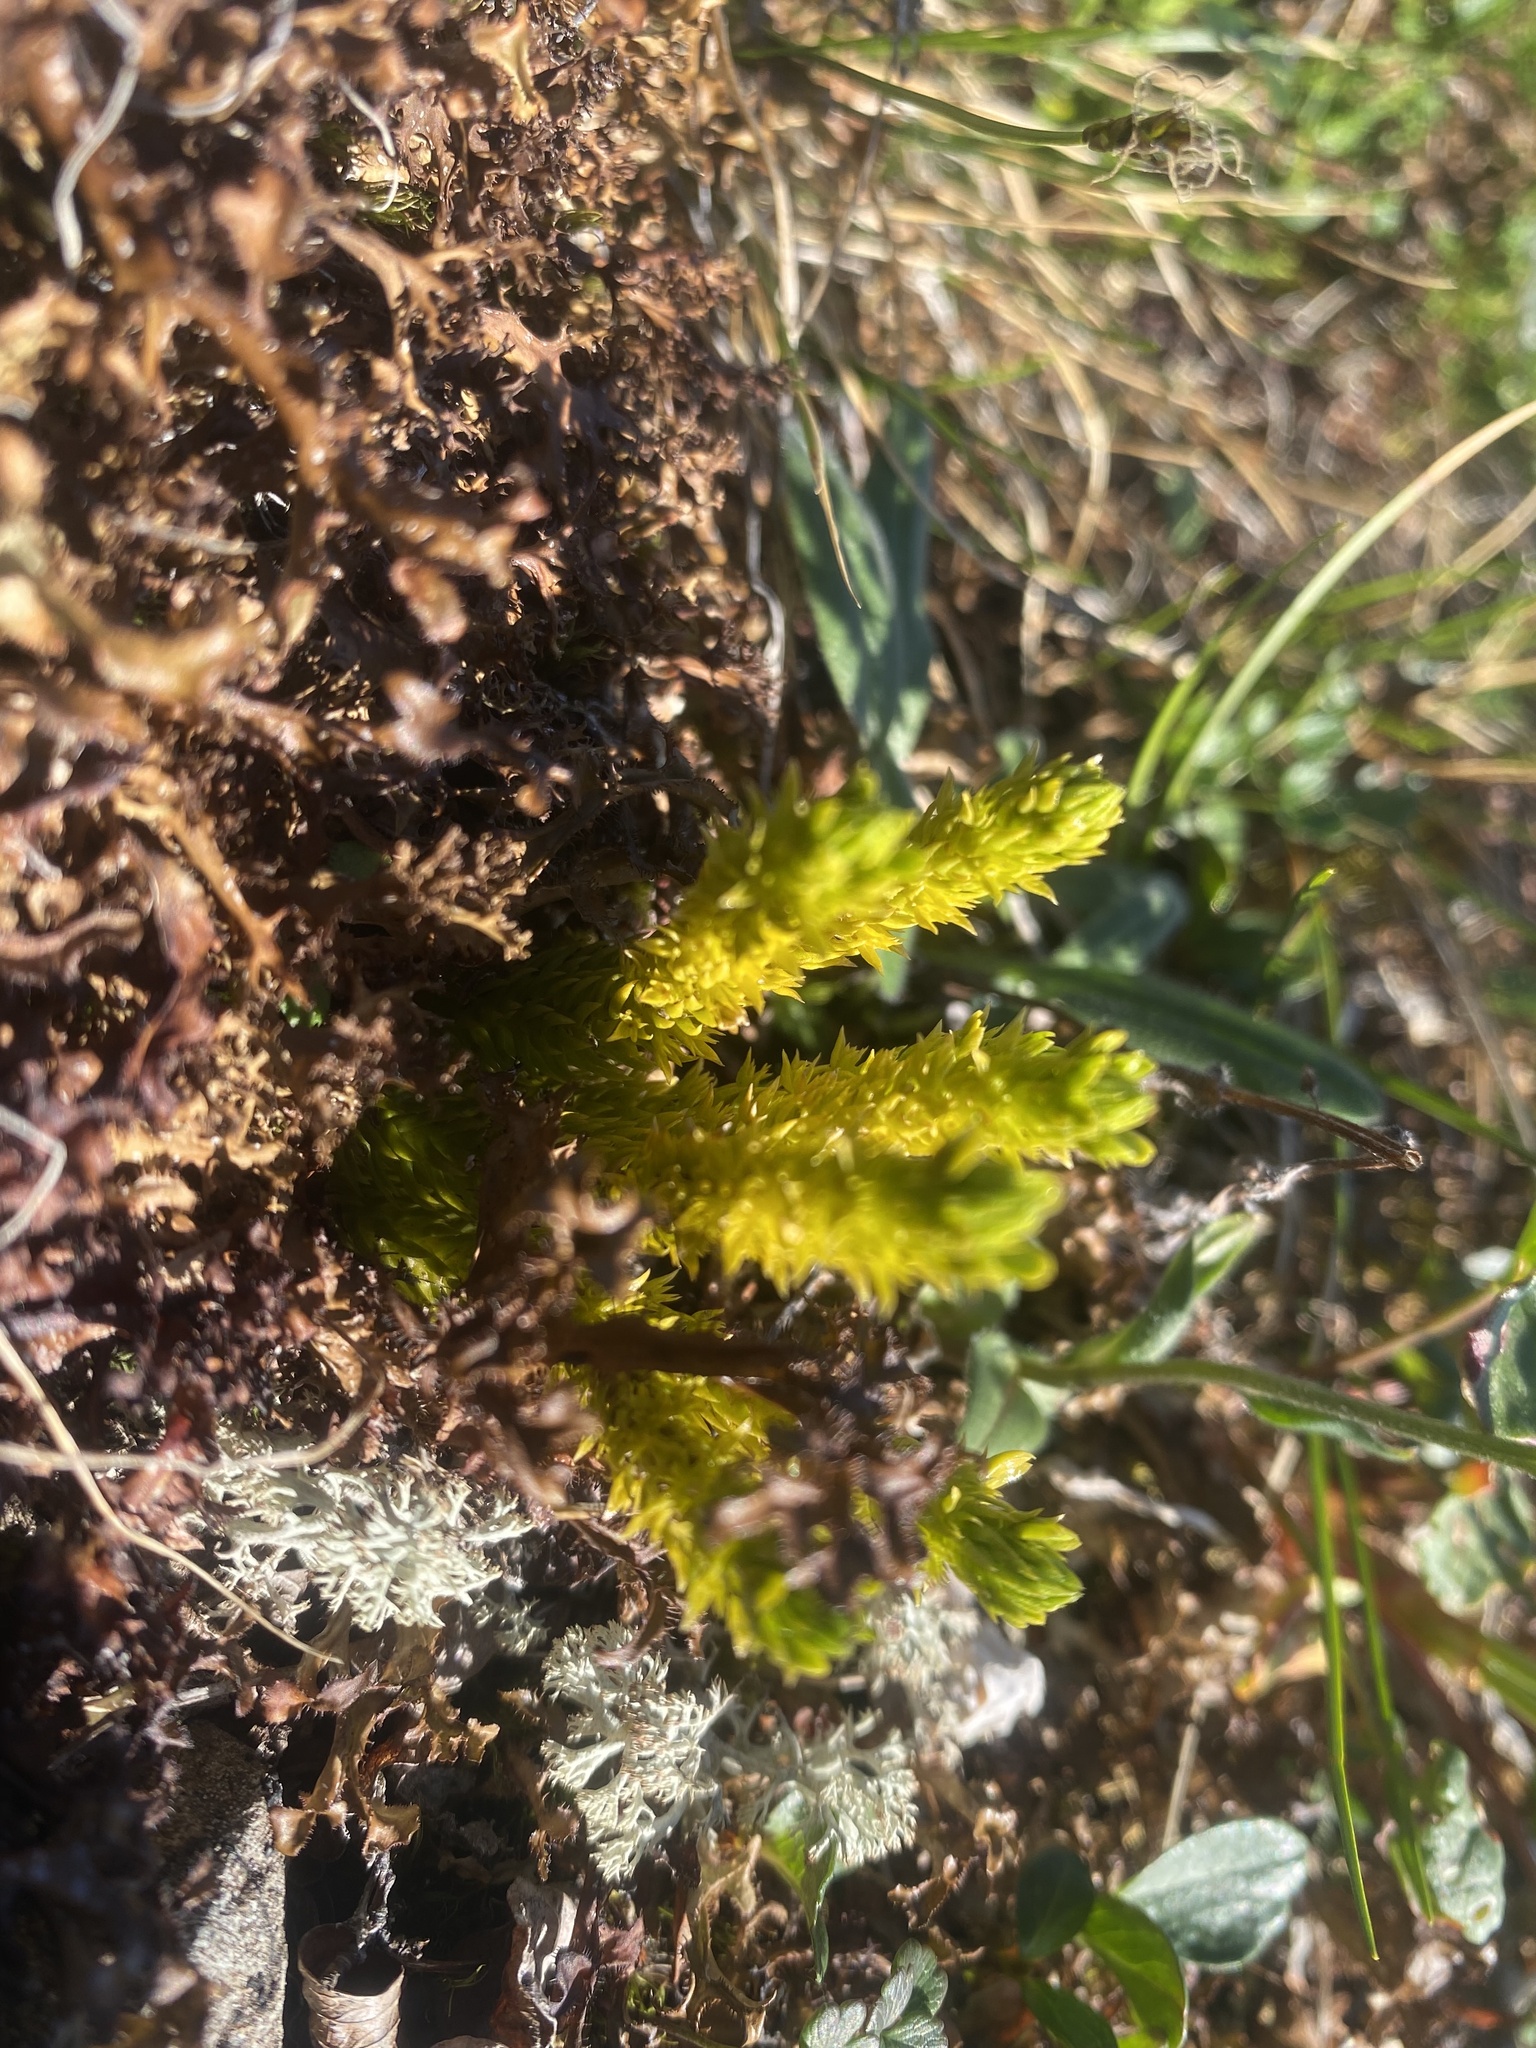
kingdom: Plantae
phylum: Tracheophyta
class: Lycopodiopsida
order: Lycopodiales
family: Lycopodiaceae
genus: Huperzia
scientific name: Huperzia selago
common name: Northern firmoss
